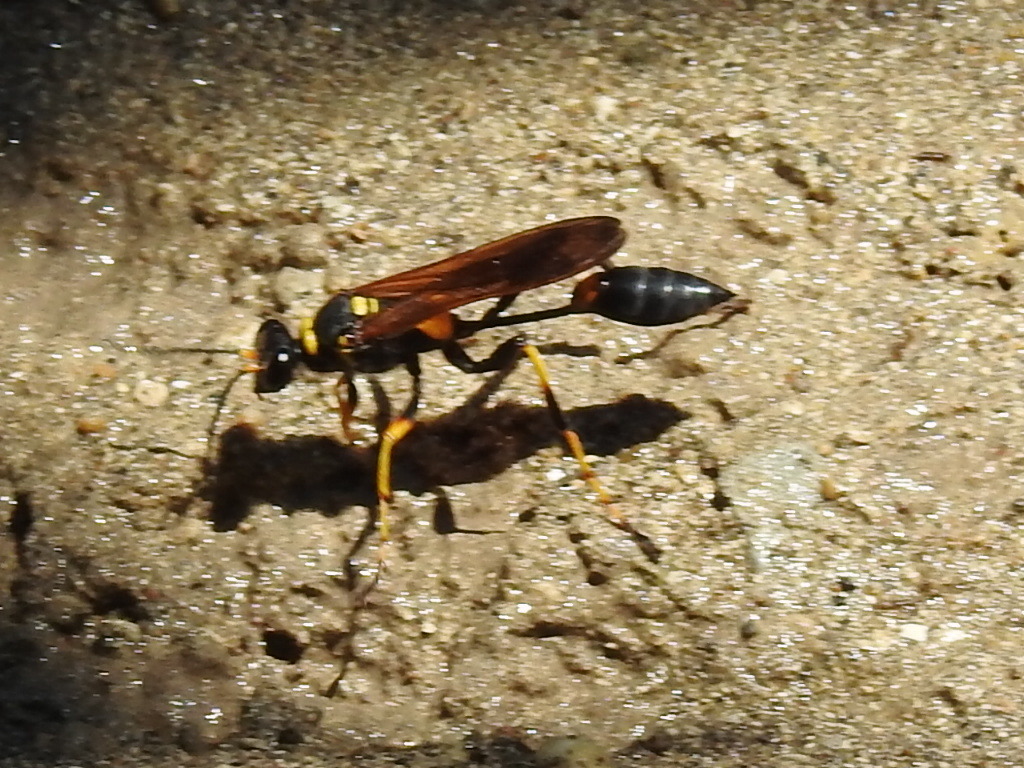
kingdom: Animalia
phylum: Arthropoda
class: Insecta
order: Hymenoptera
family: Sphecidae
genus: Sceliphron
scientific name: Sceliphron caementarium
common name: Mud dauber
